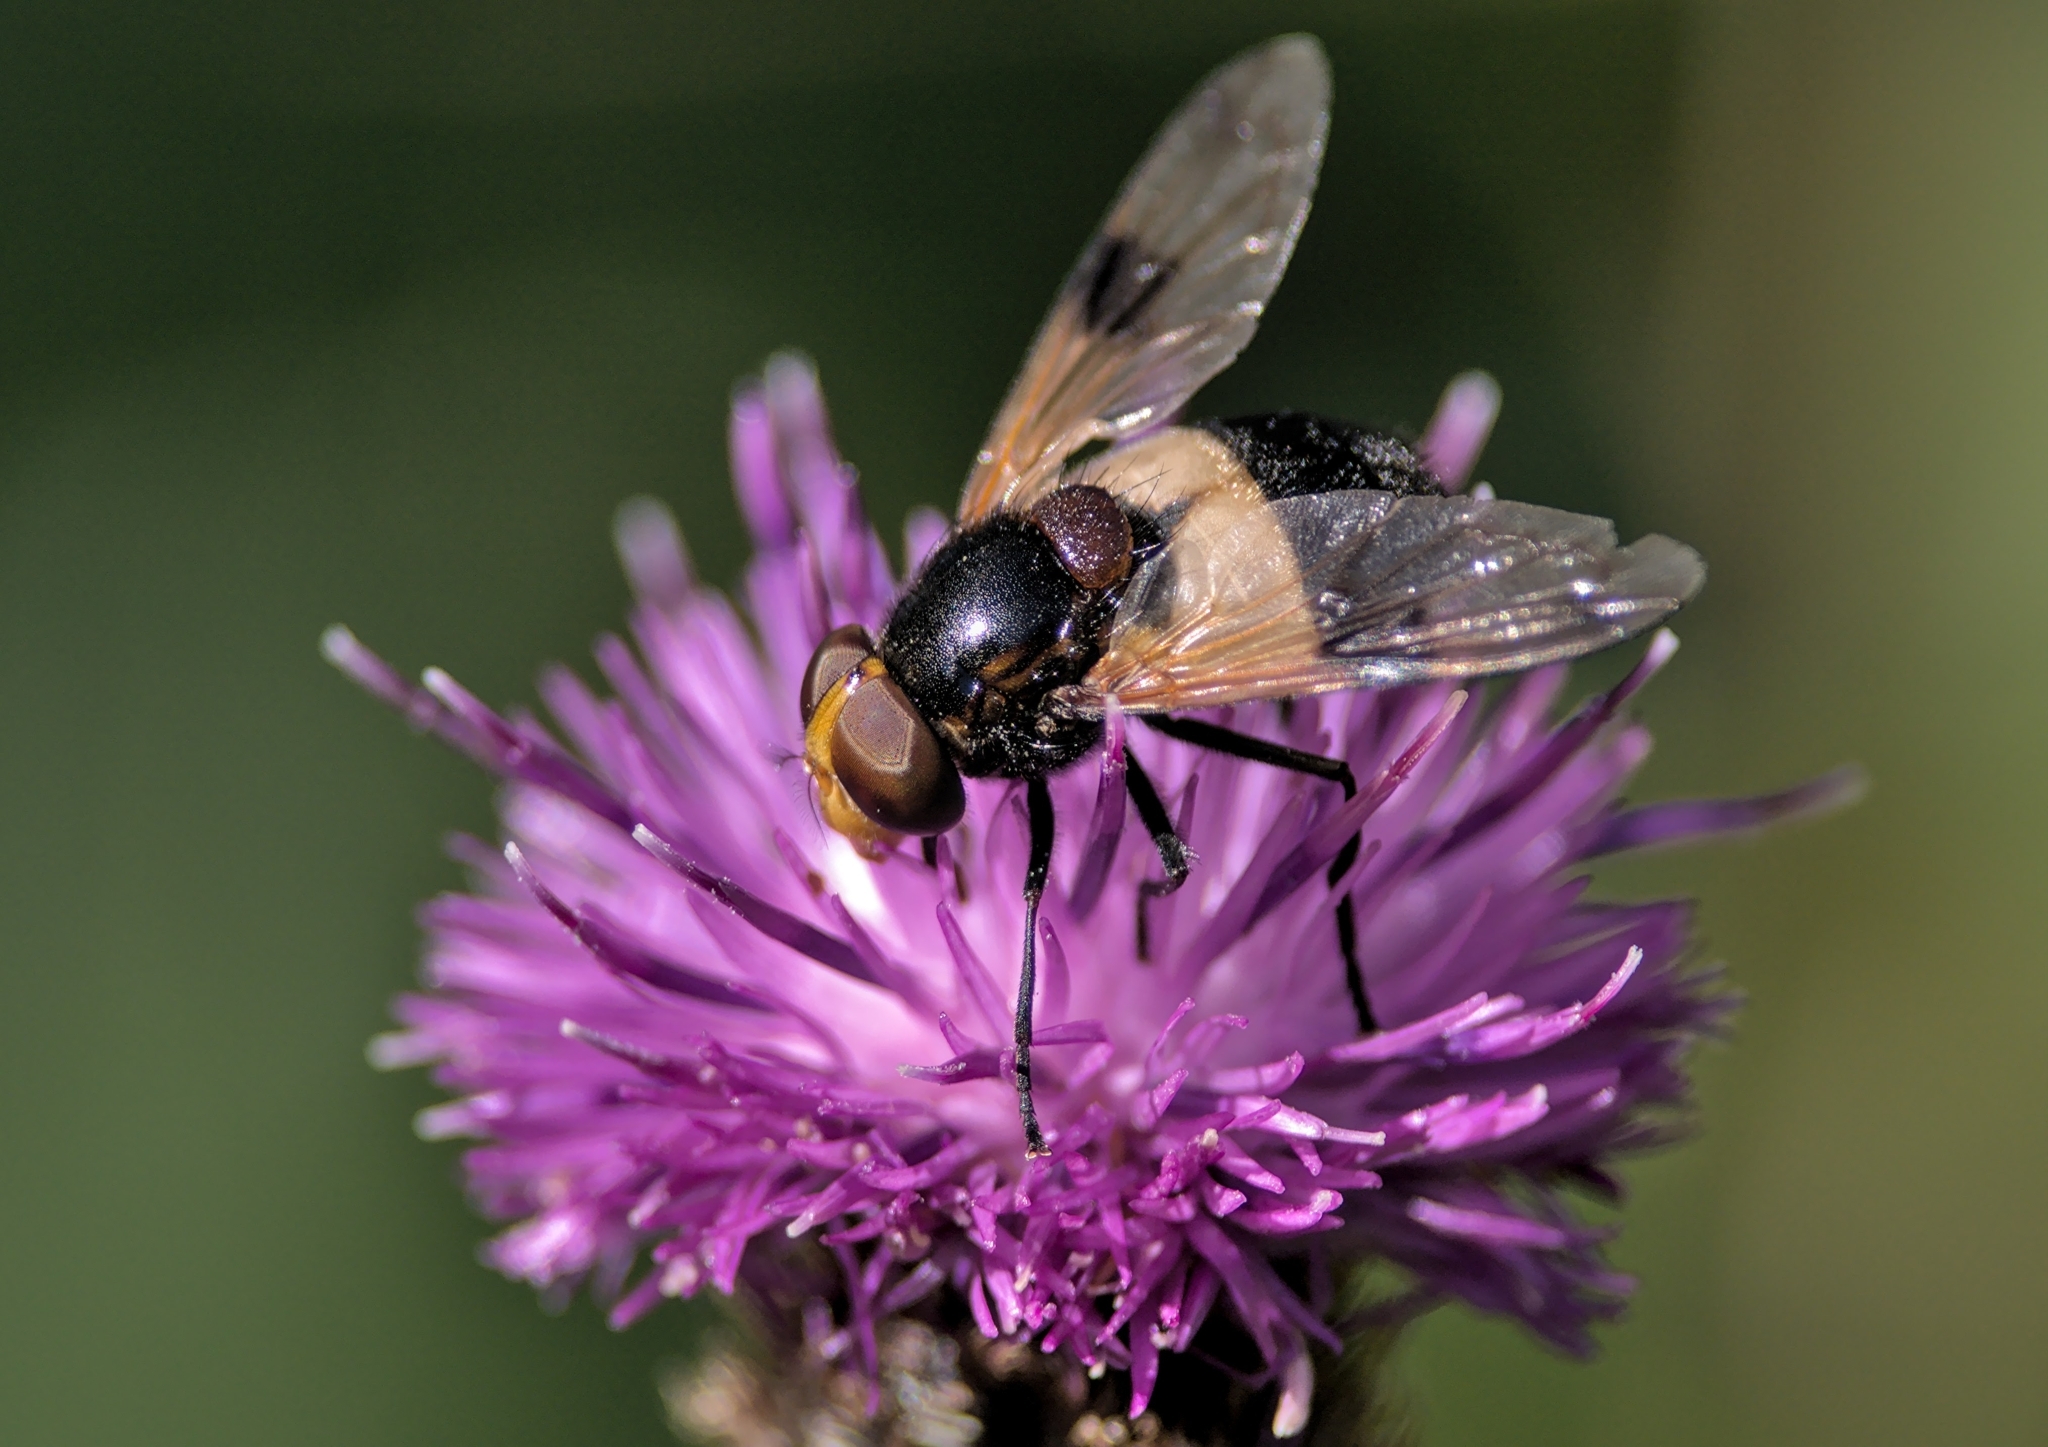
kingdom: Animalia
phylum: Arthropoda
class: Insecta
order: Diptera
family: Syrphidae
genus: Volucella
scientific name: Volucella pellucens
